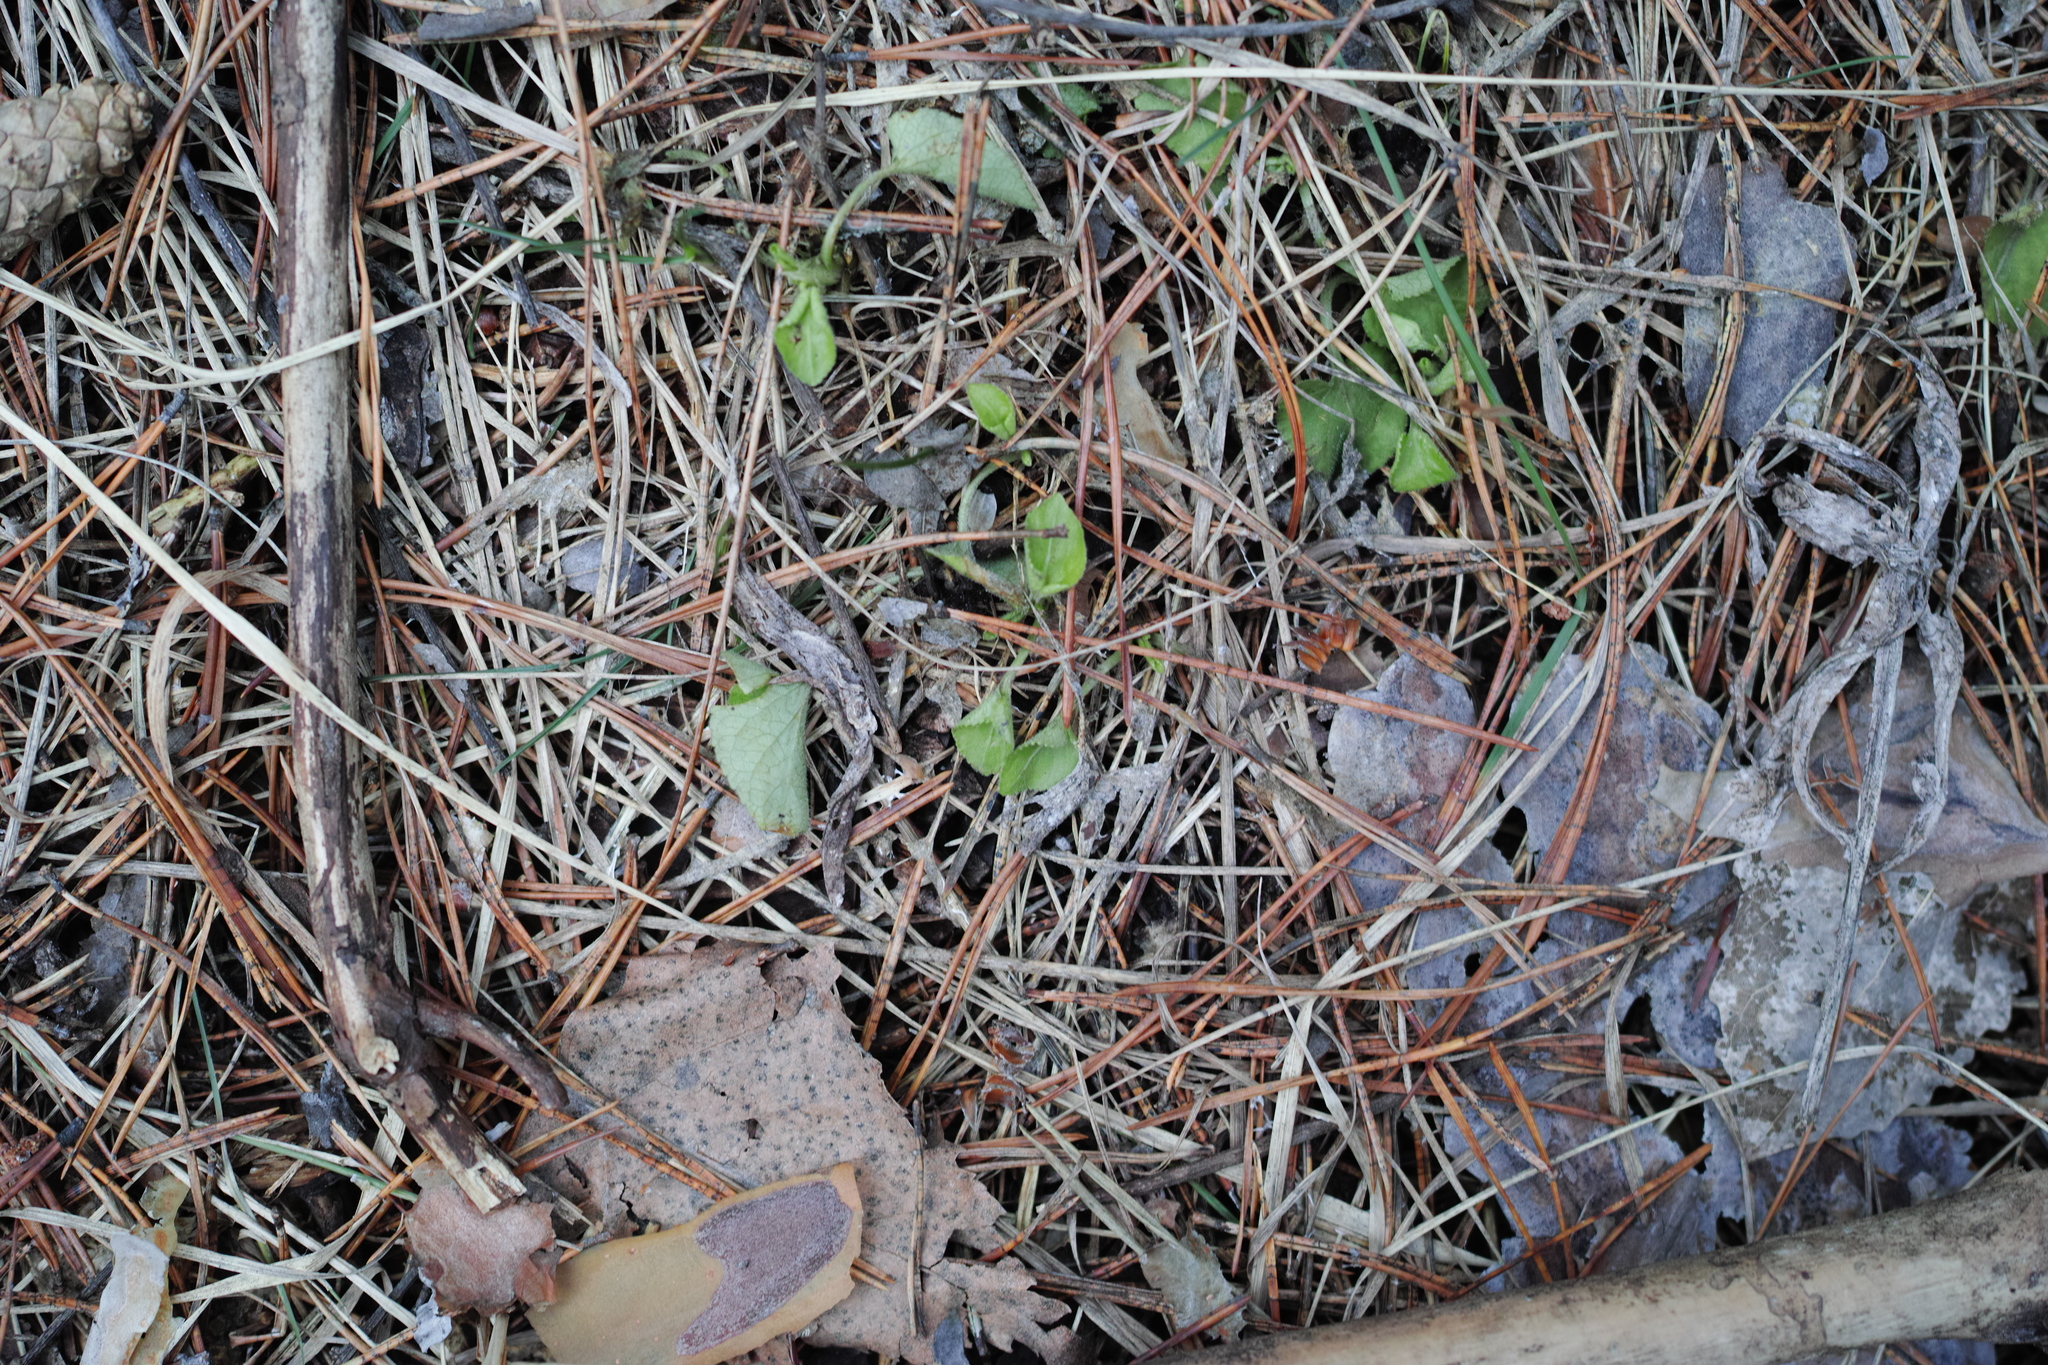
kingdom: Plantae
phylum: Tracheophyta
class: Magnoliopsida
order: Malpighiales
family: Violaceae
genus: Viola
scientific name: Viola rupestris
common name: Teesdale violet
